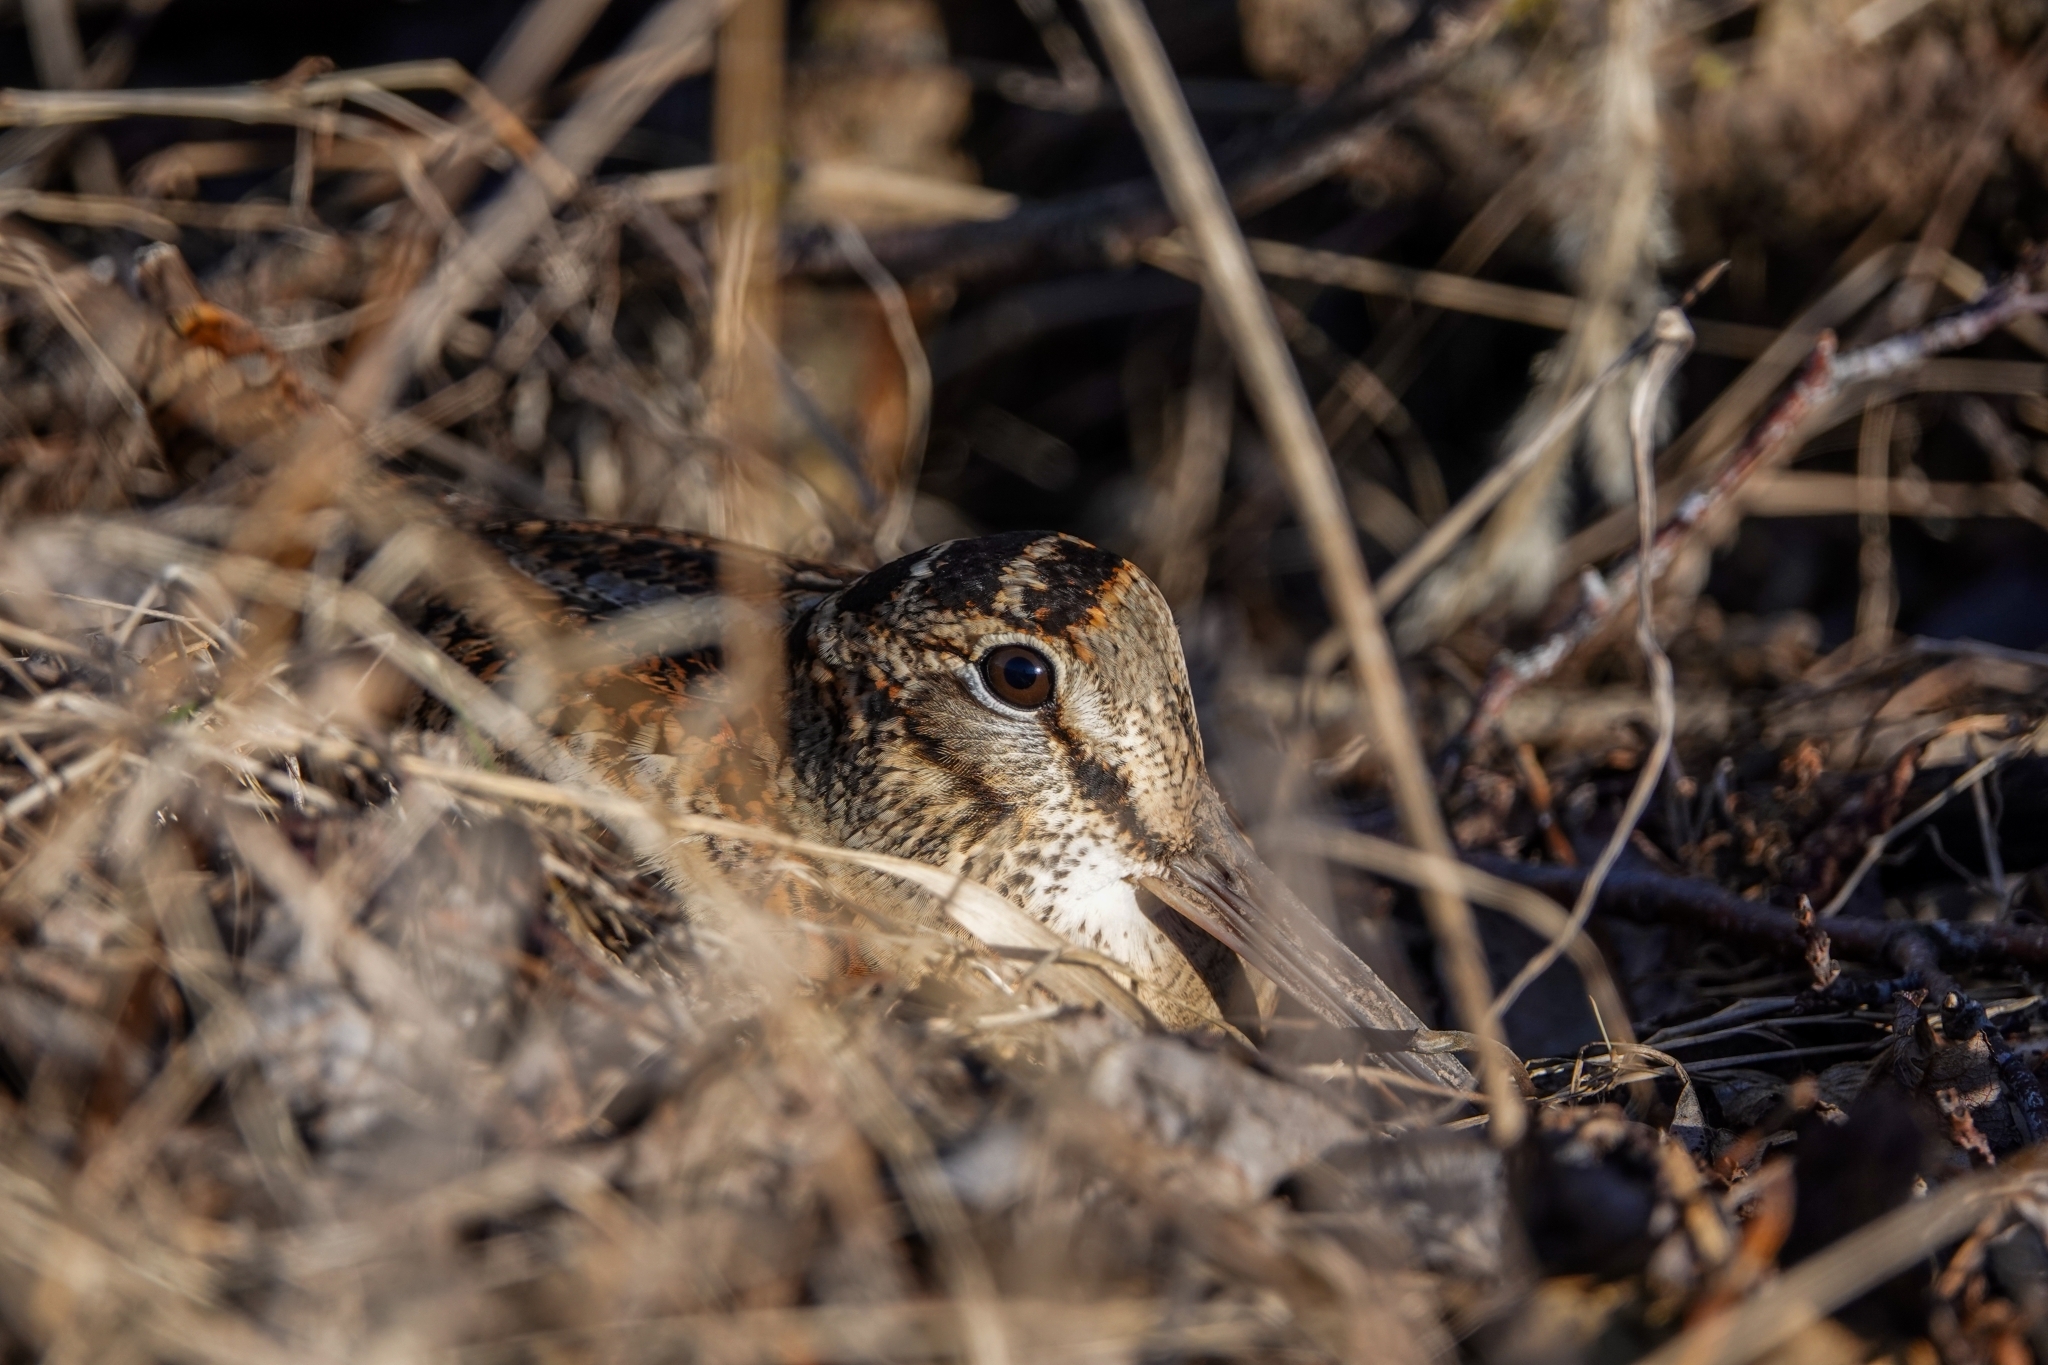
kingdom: Animalia
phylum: Chordata
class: Aves
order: Charadriiformes
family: Scolopacidae
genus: Scolopax
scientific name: Scolopax rusticola
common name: Eurasian woodcock
